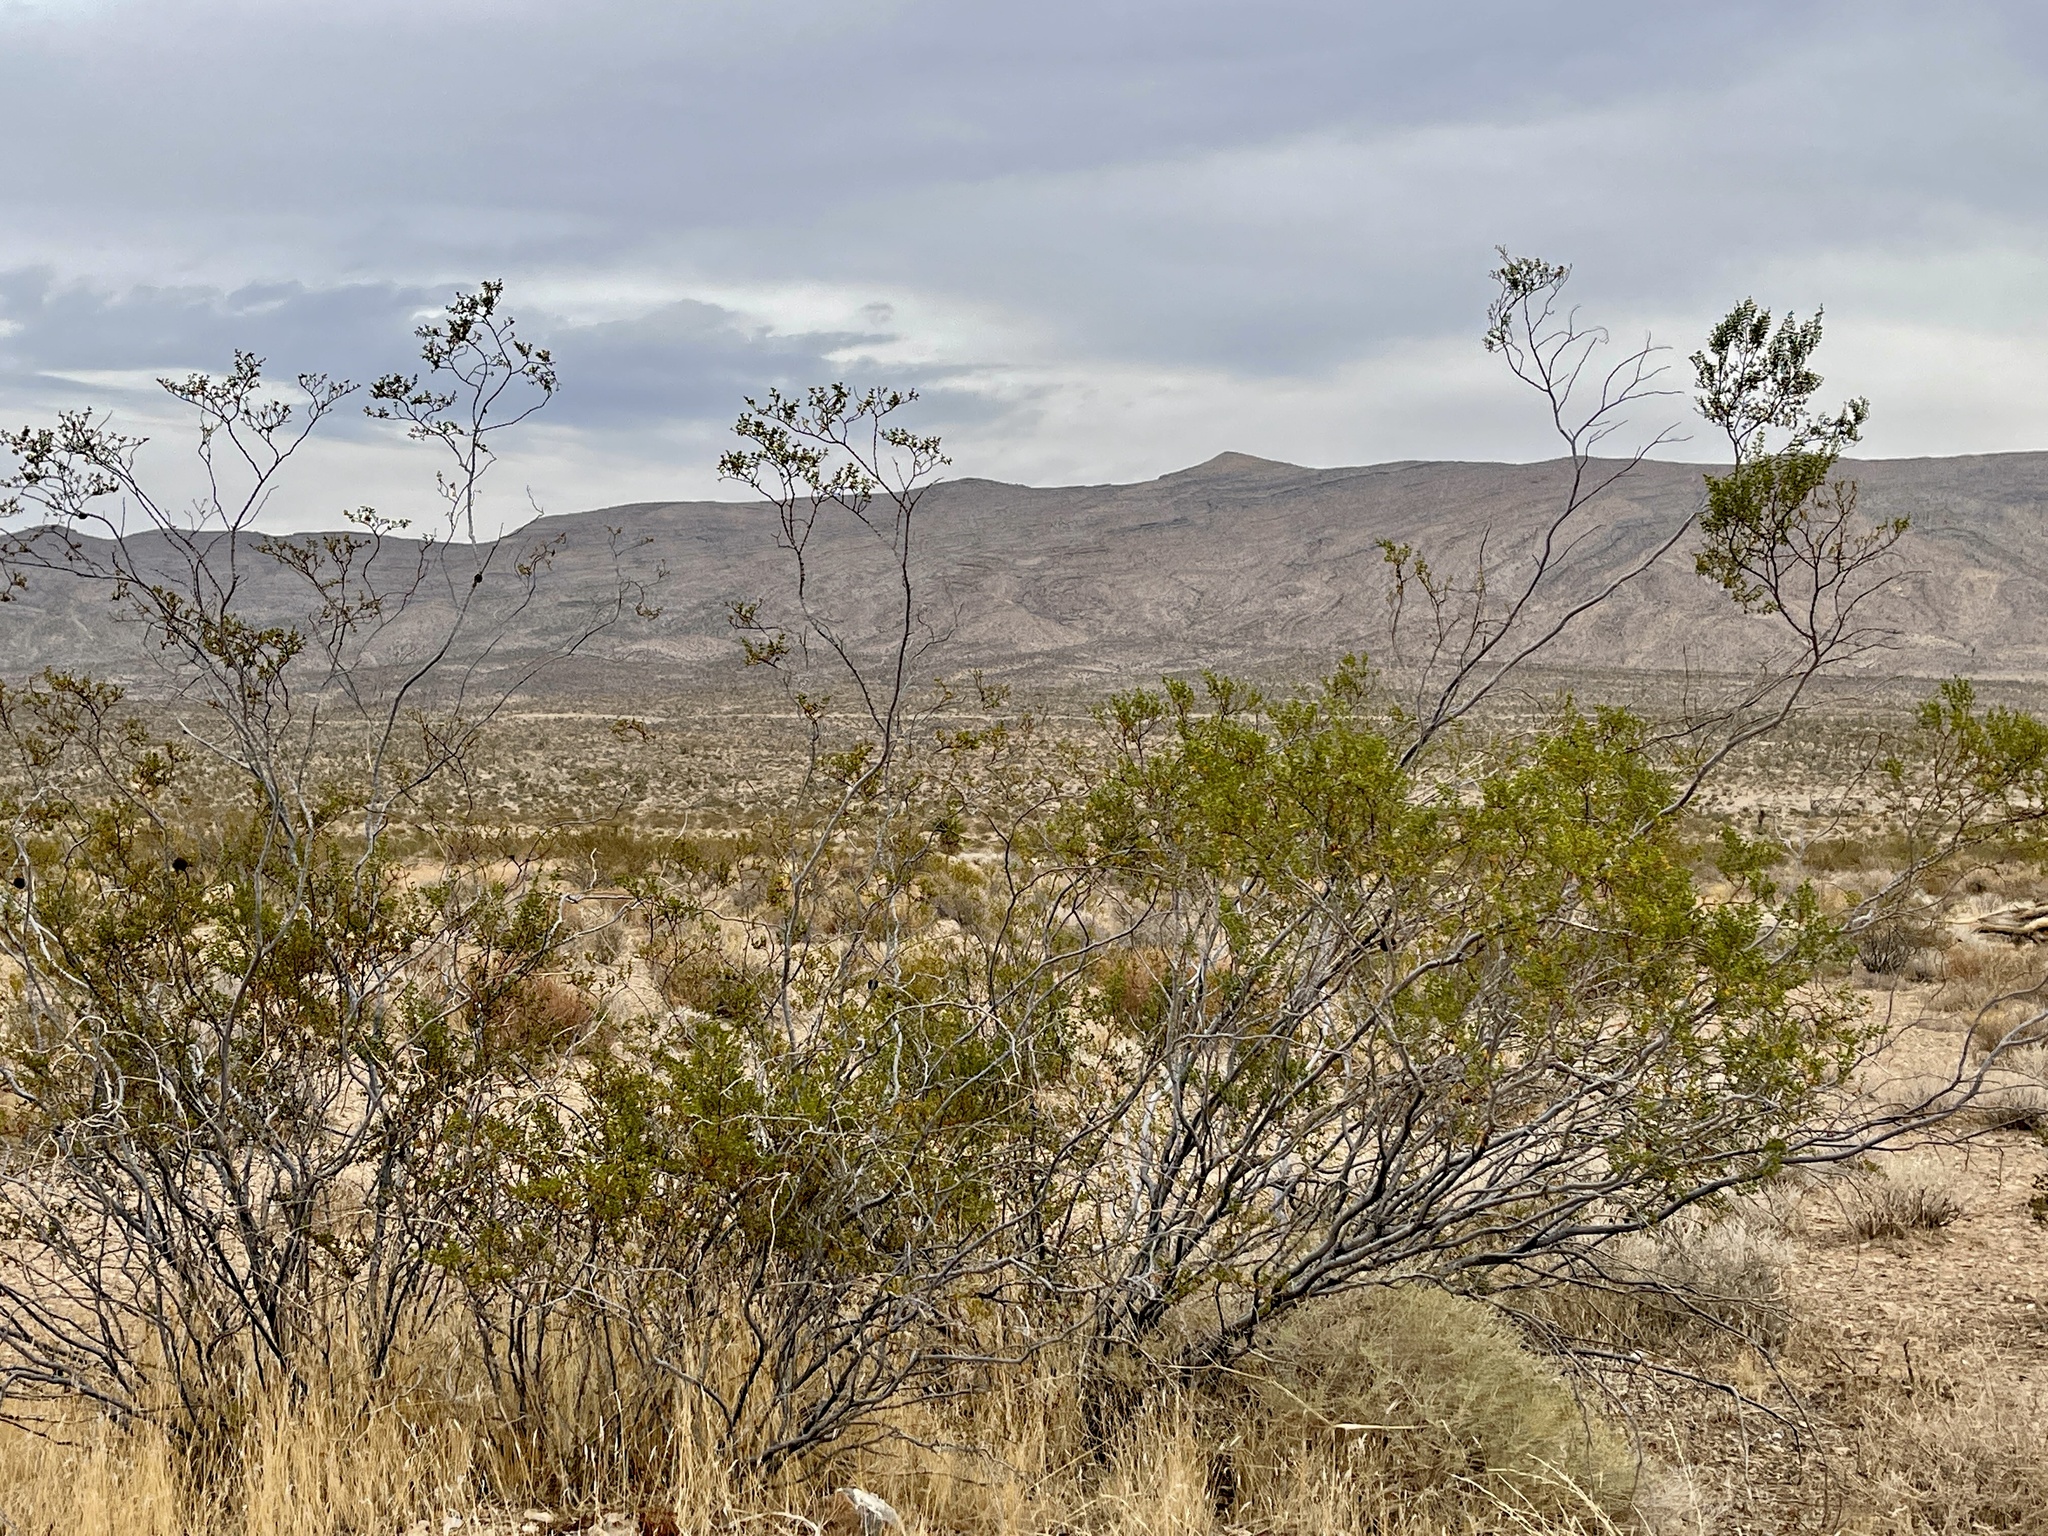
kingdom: Plantae
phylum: Tracheophyta
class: Magnoliopsida
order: Zygophyllales
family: Zygophyllaceae
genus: Larrea
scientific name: Larrea tridentata
